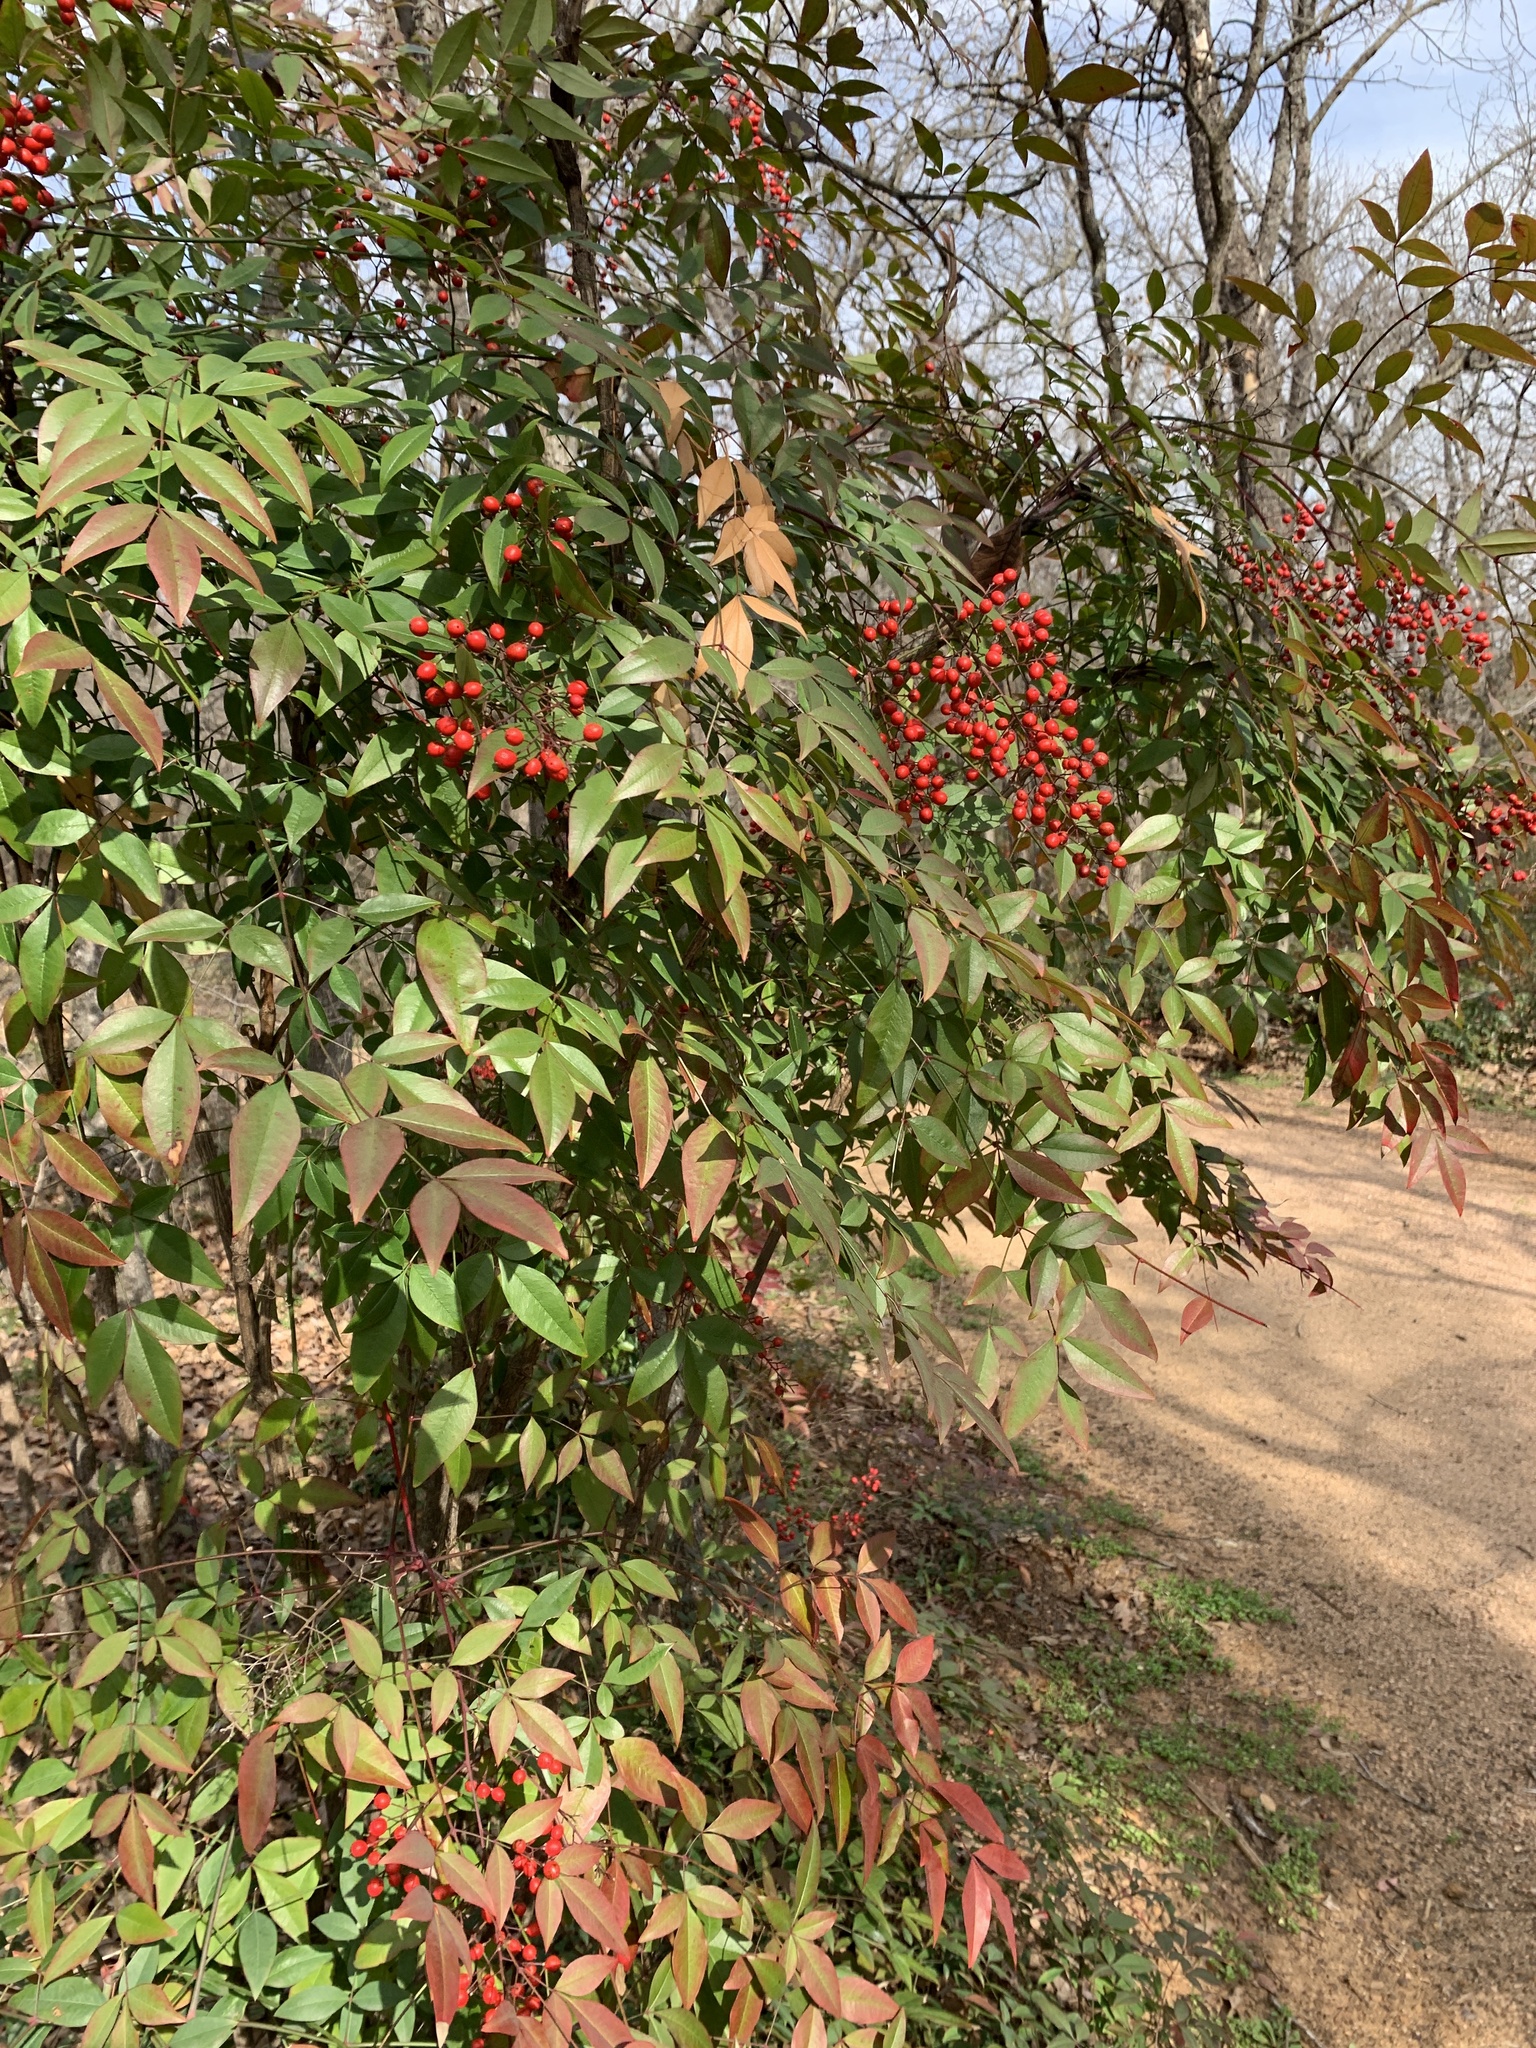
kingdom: Plantae
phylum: Tracheophyta
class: Magnoliopsida
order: Ranunculales
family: Berberidaceae
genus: Nandina
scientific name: Nandina domestica
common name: Sacred bamboo
